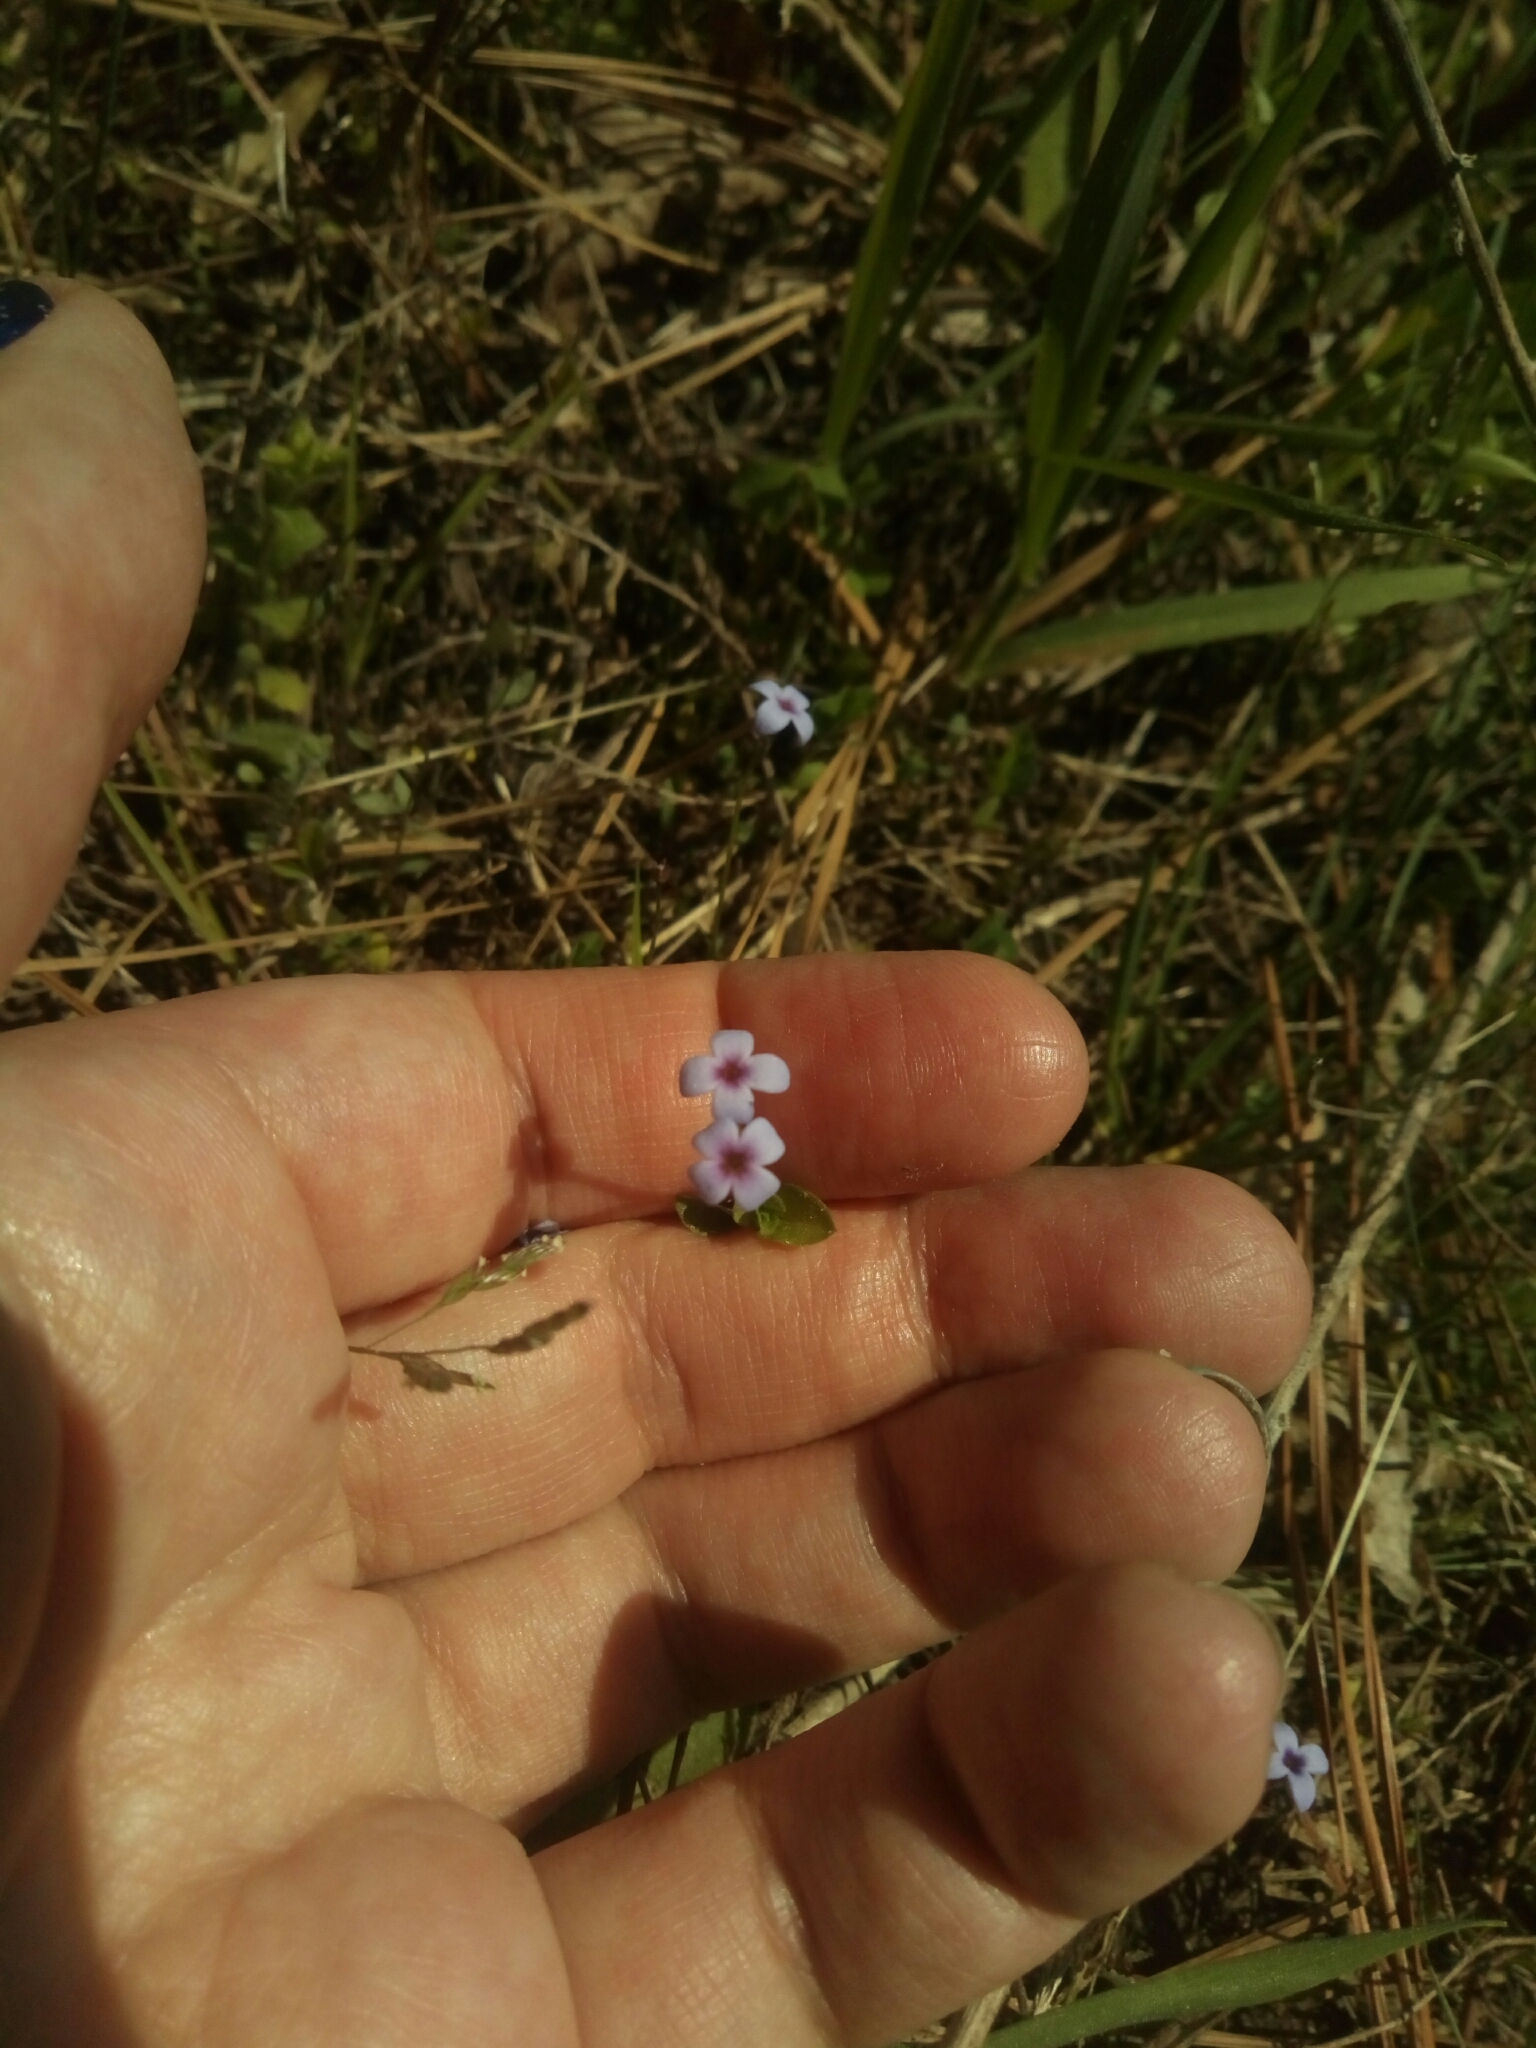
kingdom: Plantae
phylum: Tracheophyta
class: Magnoliopsida
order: Gentianales
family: Rubiaceae
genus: Houstonia
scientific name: Houstonia pusilla
